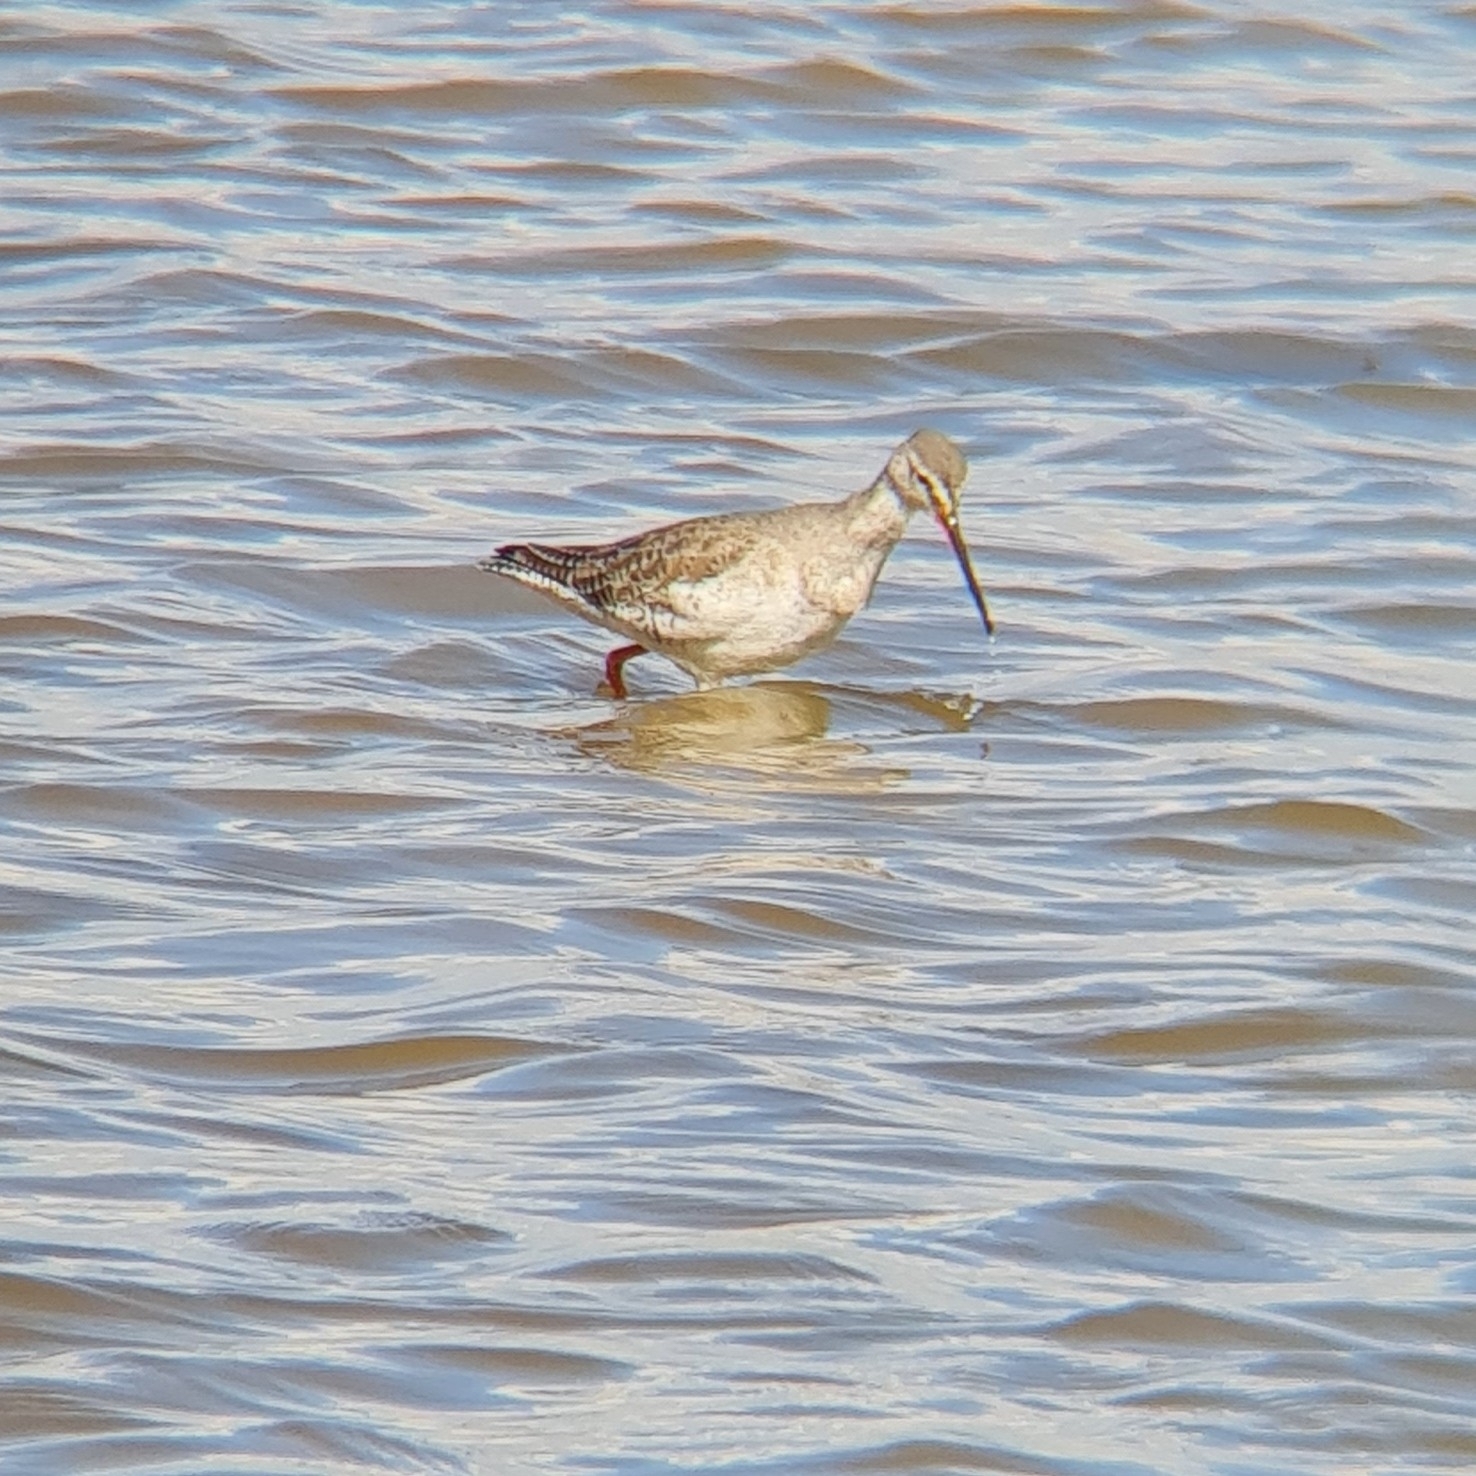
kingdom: Animalia
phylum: Chordata
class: Aves
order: Charadriiformes
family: Scolopacidae
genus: Tringa
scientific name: Tringa erythropus
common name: Spotted redshank
